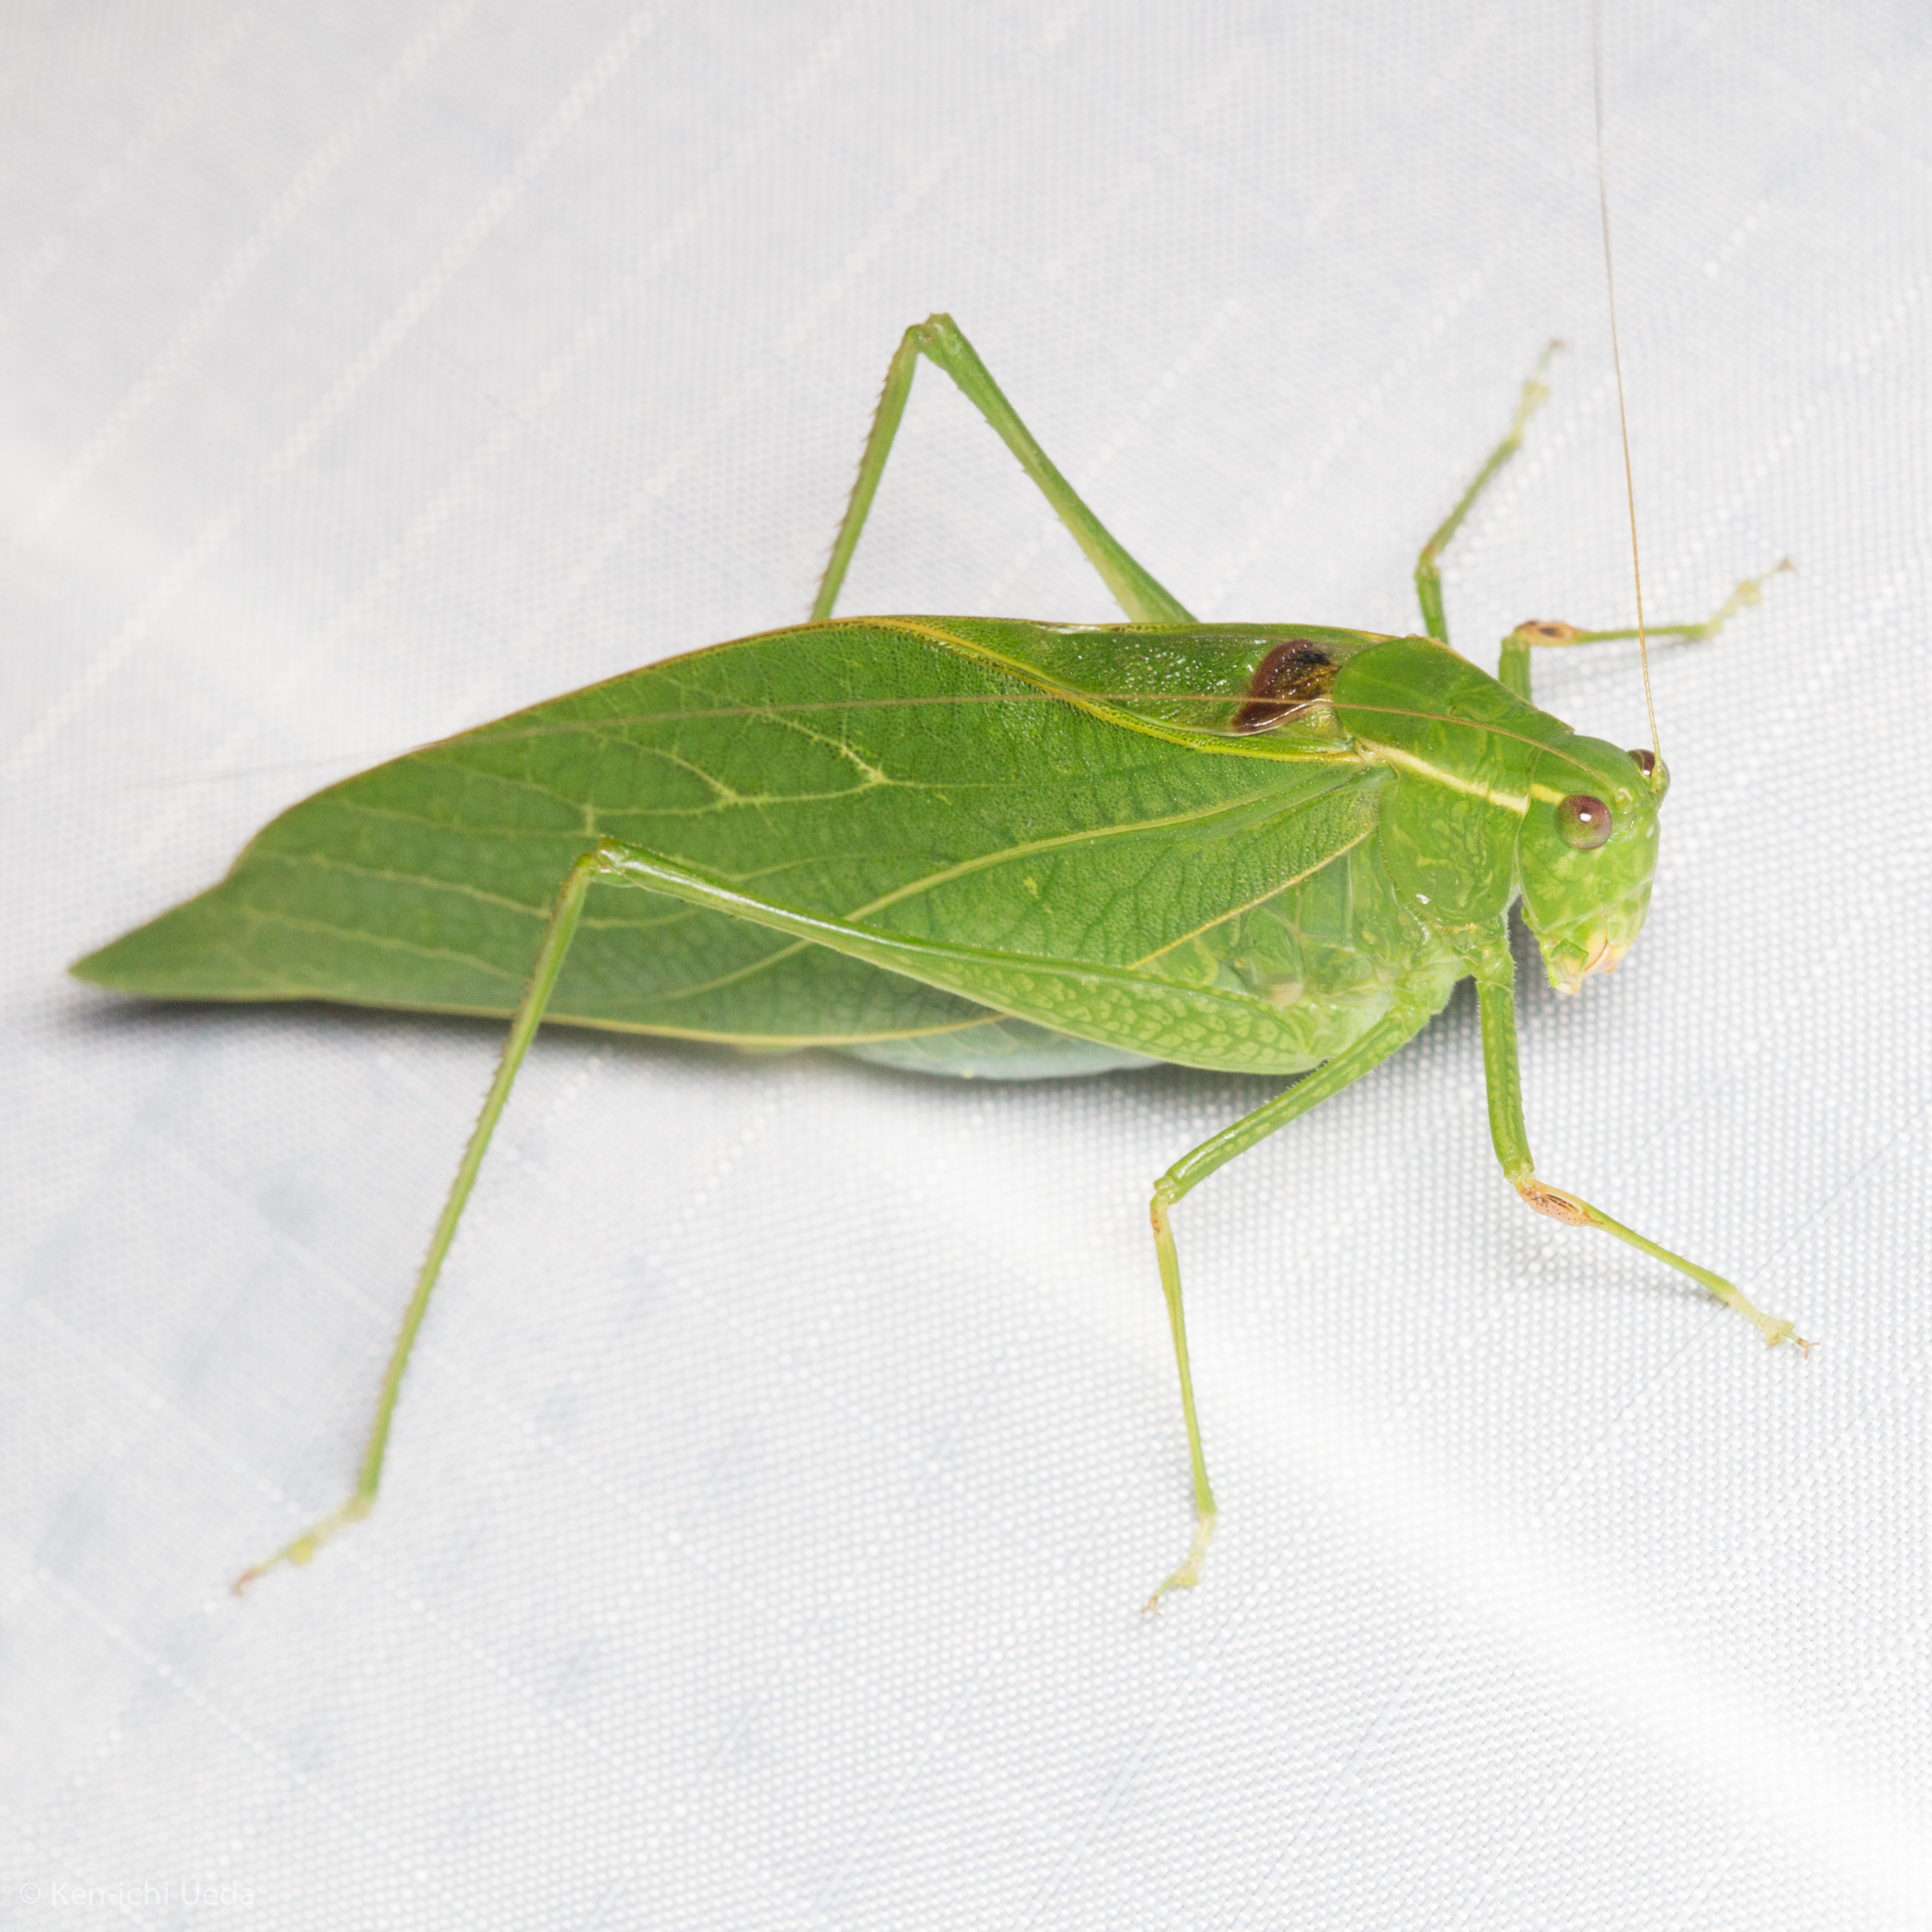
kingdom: Animalia
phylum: Arthropoda
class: Insecta
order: Orthoptera
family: Tettigoniidae
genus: Microcentrum
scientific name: Microcentrum retinerve
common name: Angular-winged katydid
